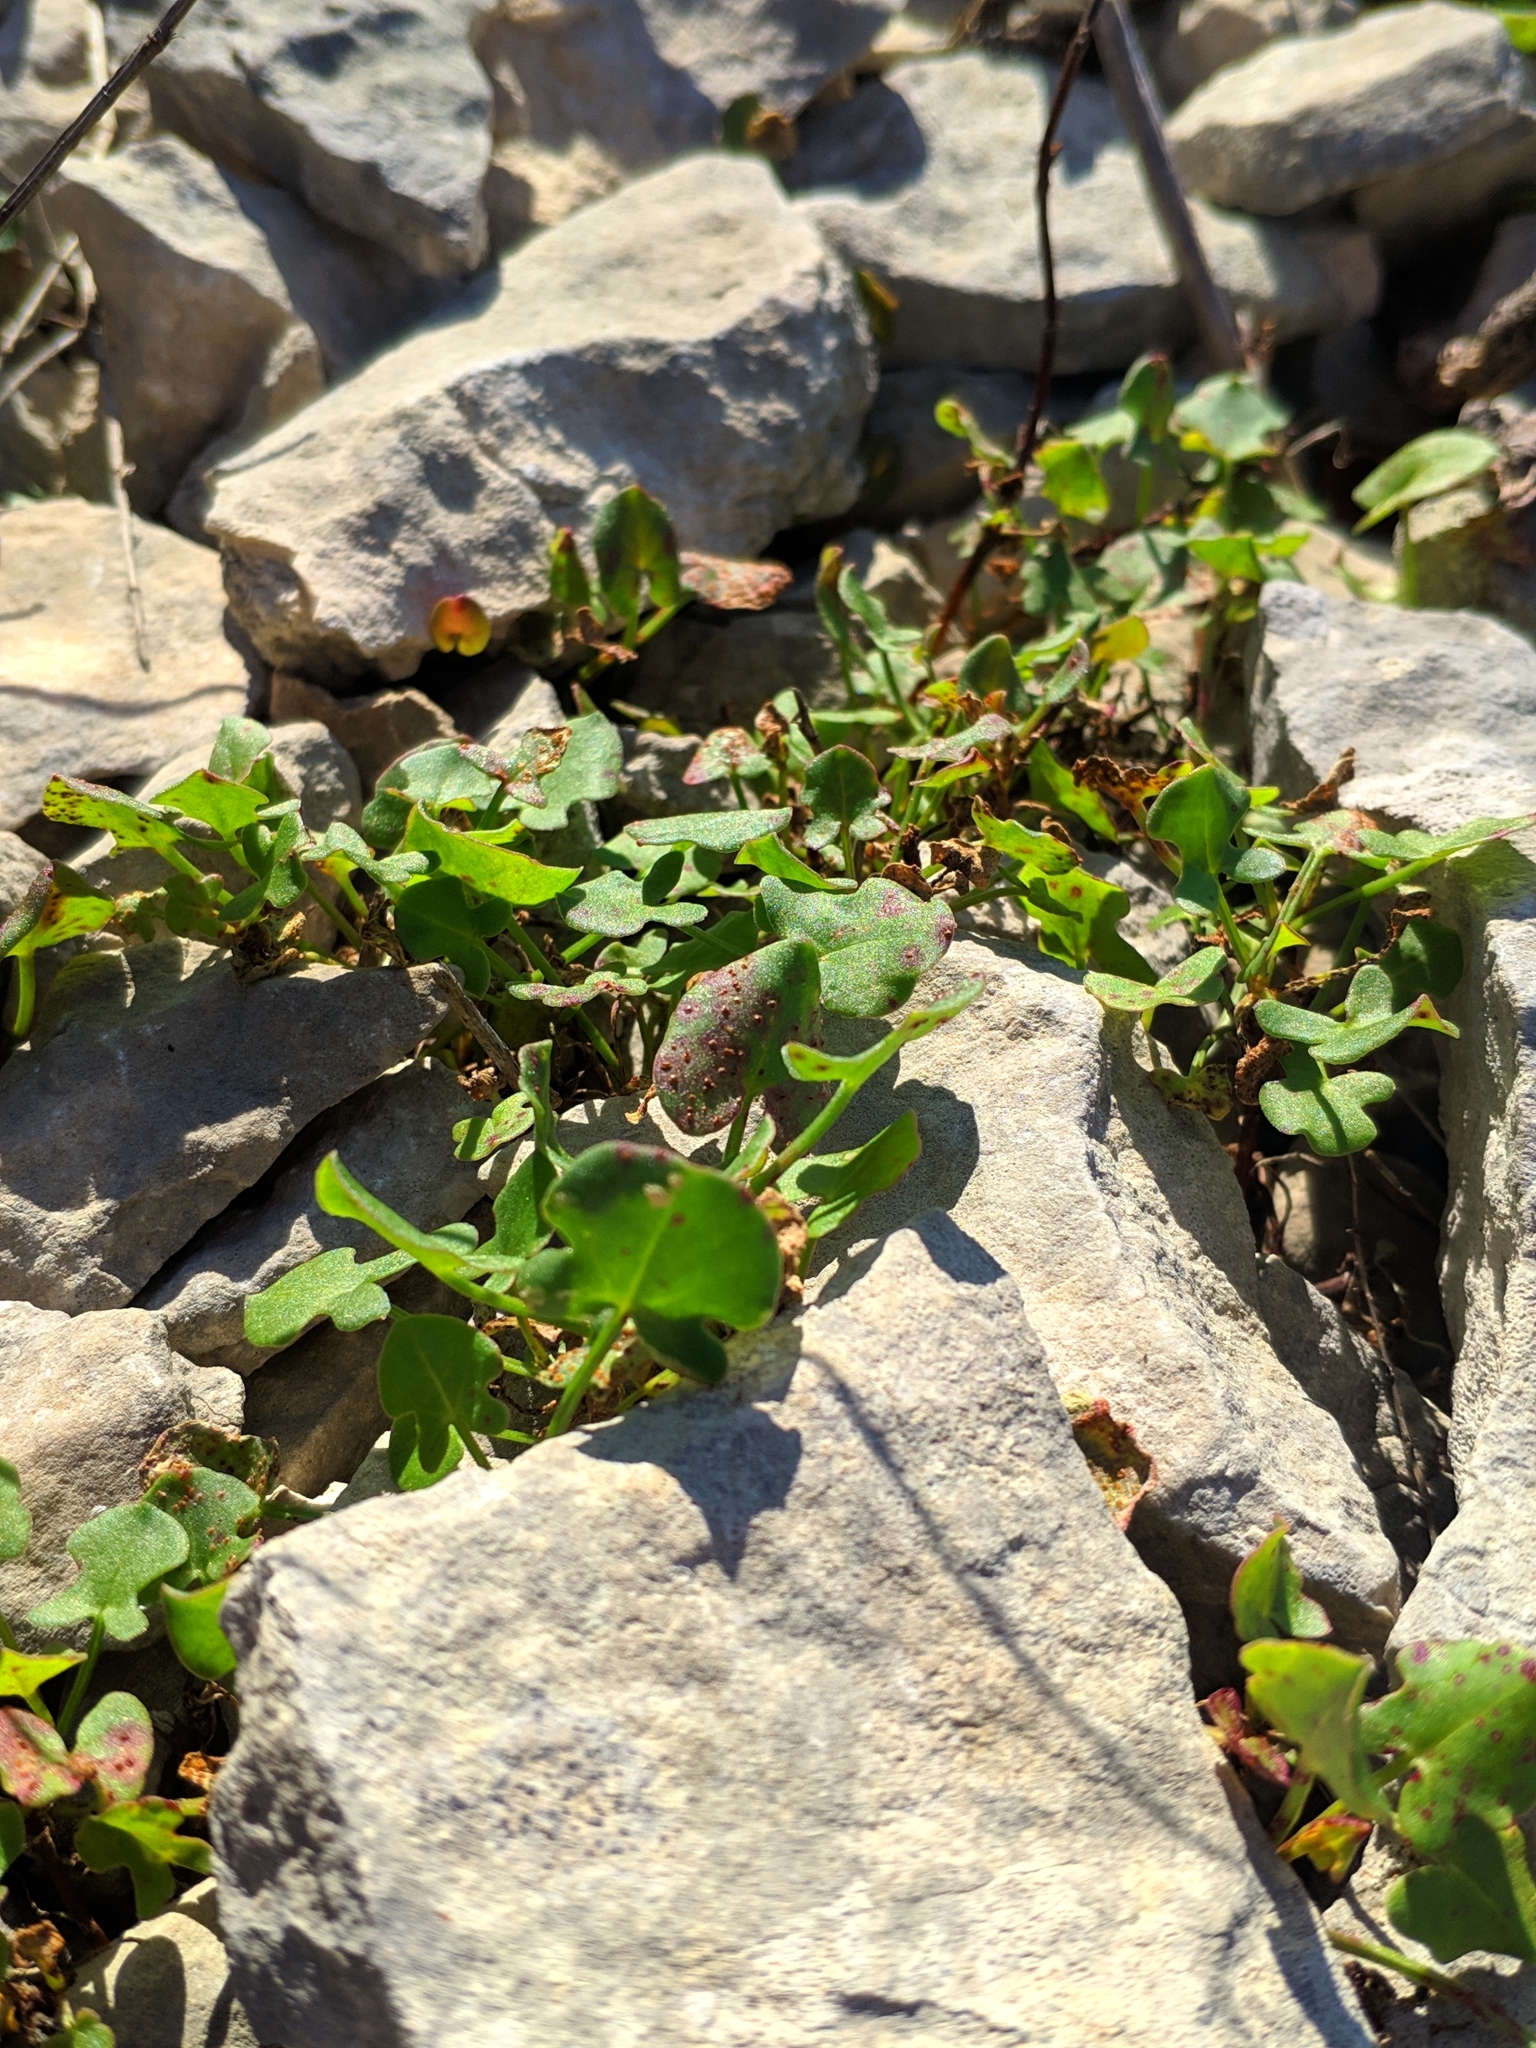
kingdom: Plantae
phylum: Tracheophyta
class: Magnoliopsida
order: Caryophyllales
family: Polygonaceae
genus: Rumex
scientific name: Rumex scutatus
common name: French sorrel
